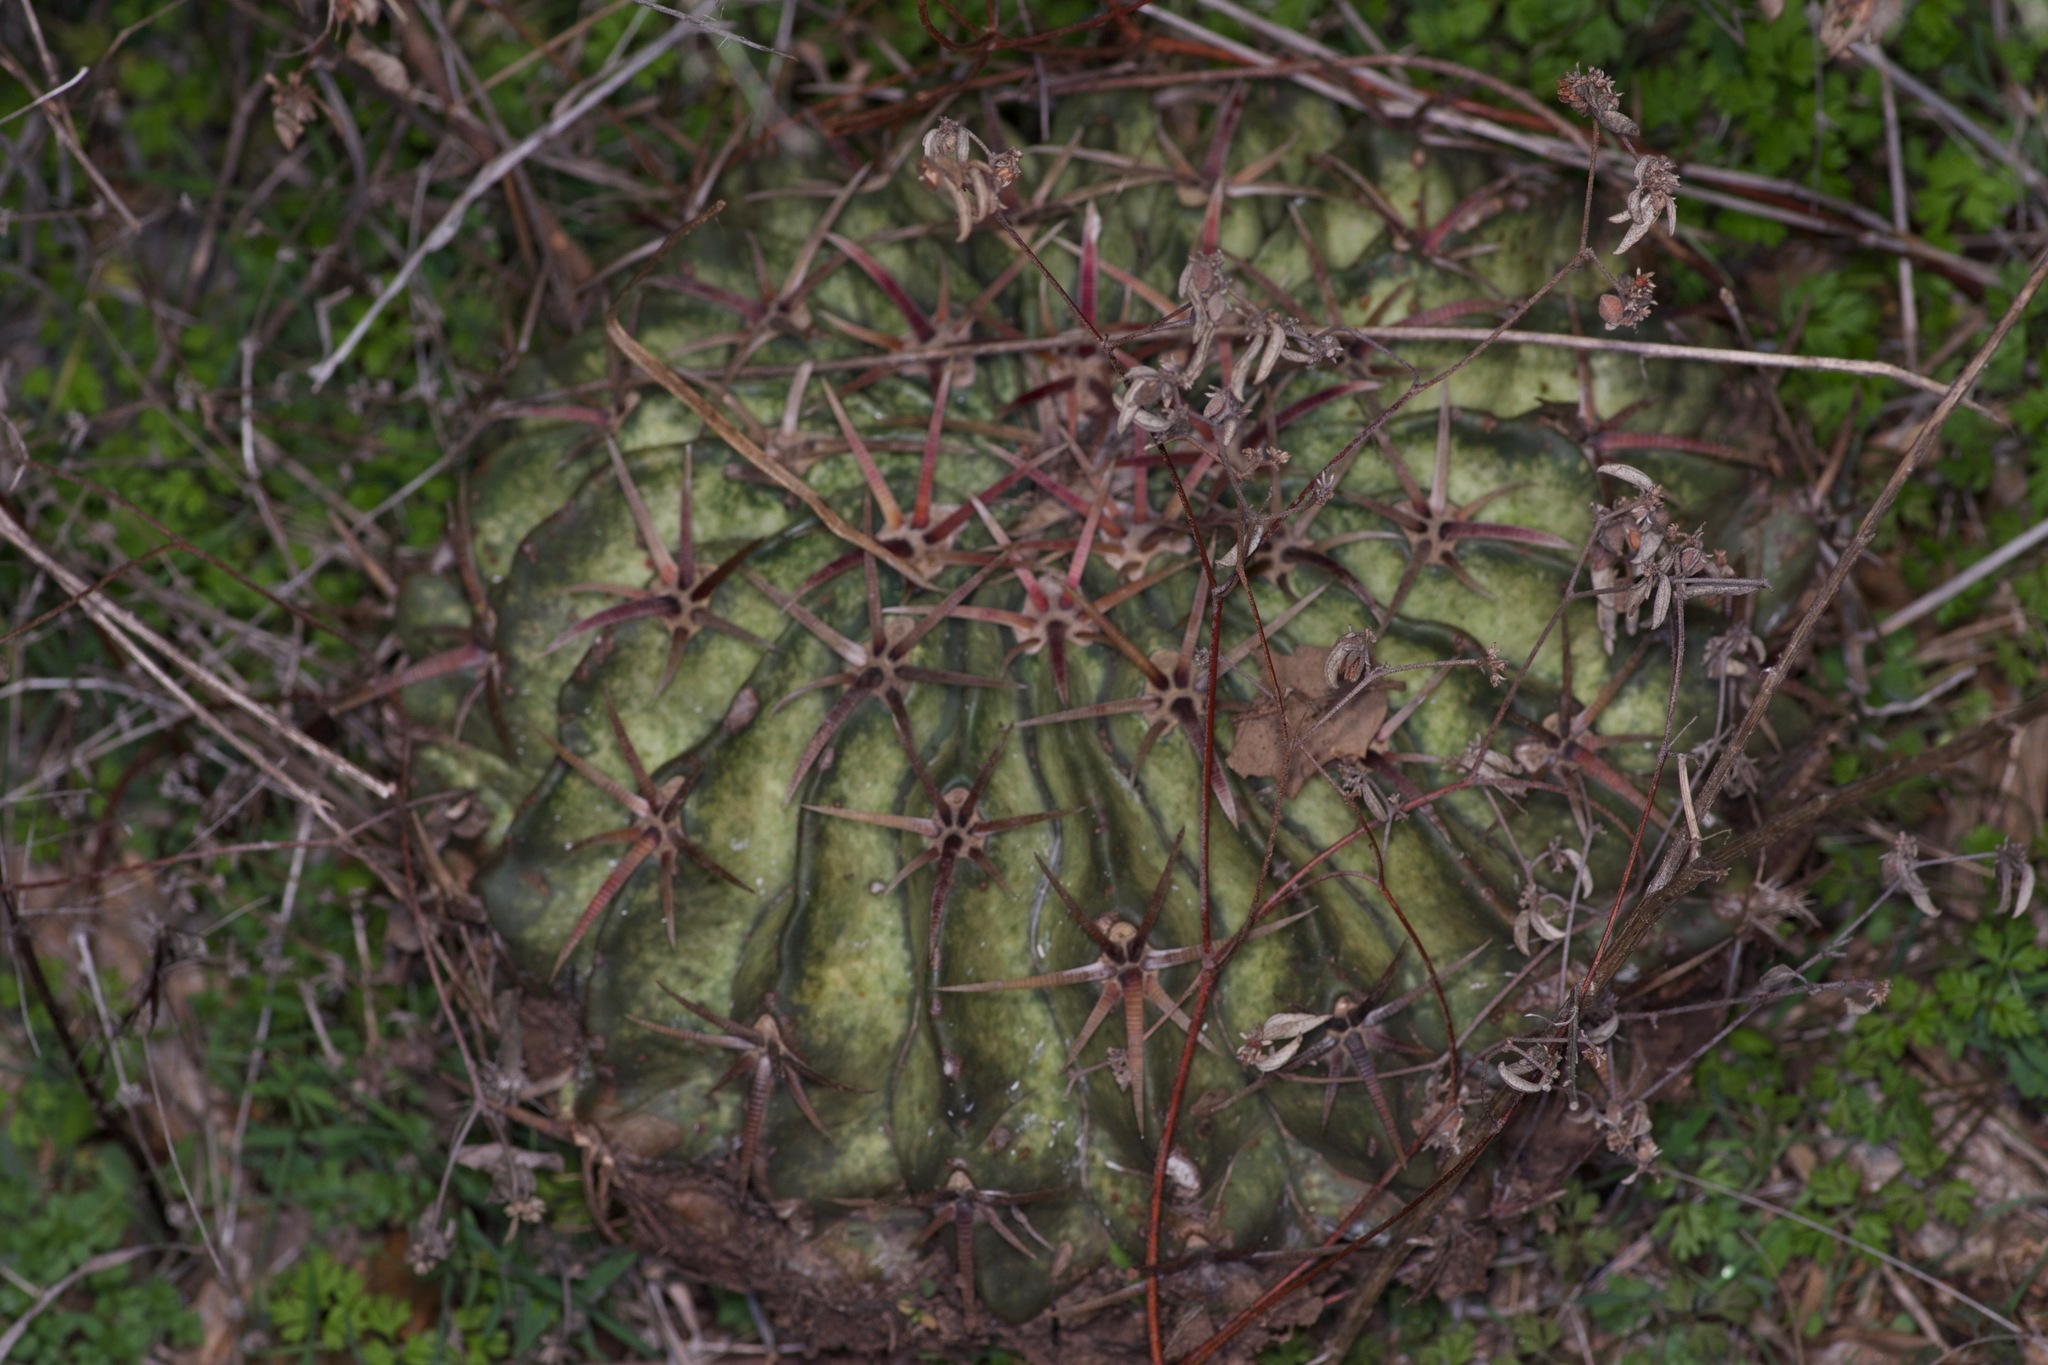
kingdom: Plantae
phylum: Tracheophyta
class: Magnoliopsida
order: Caryophyllales
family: Cactaceae
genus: Echinocactus
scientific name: Echinocactus texensis
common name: Devil's pincushion
